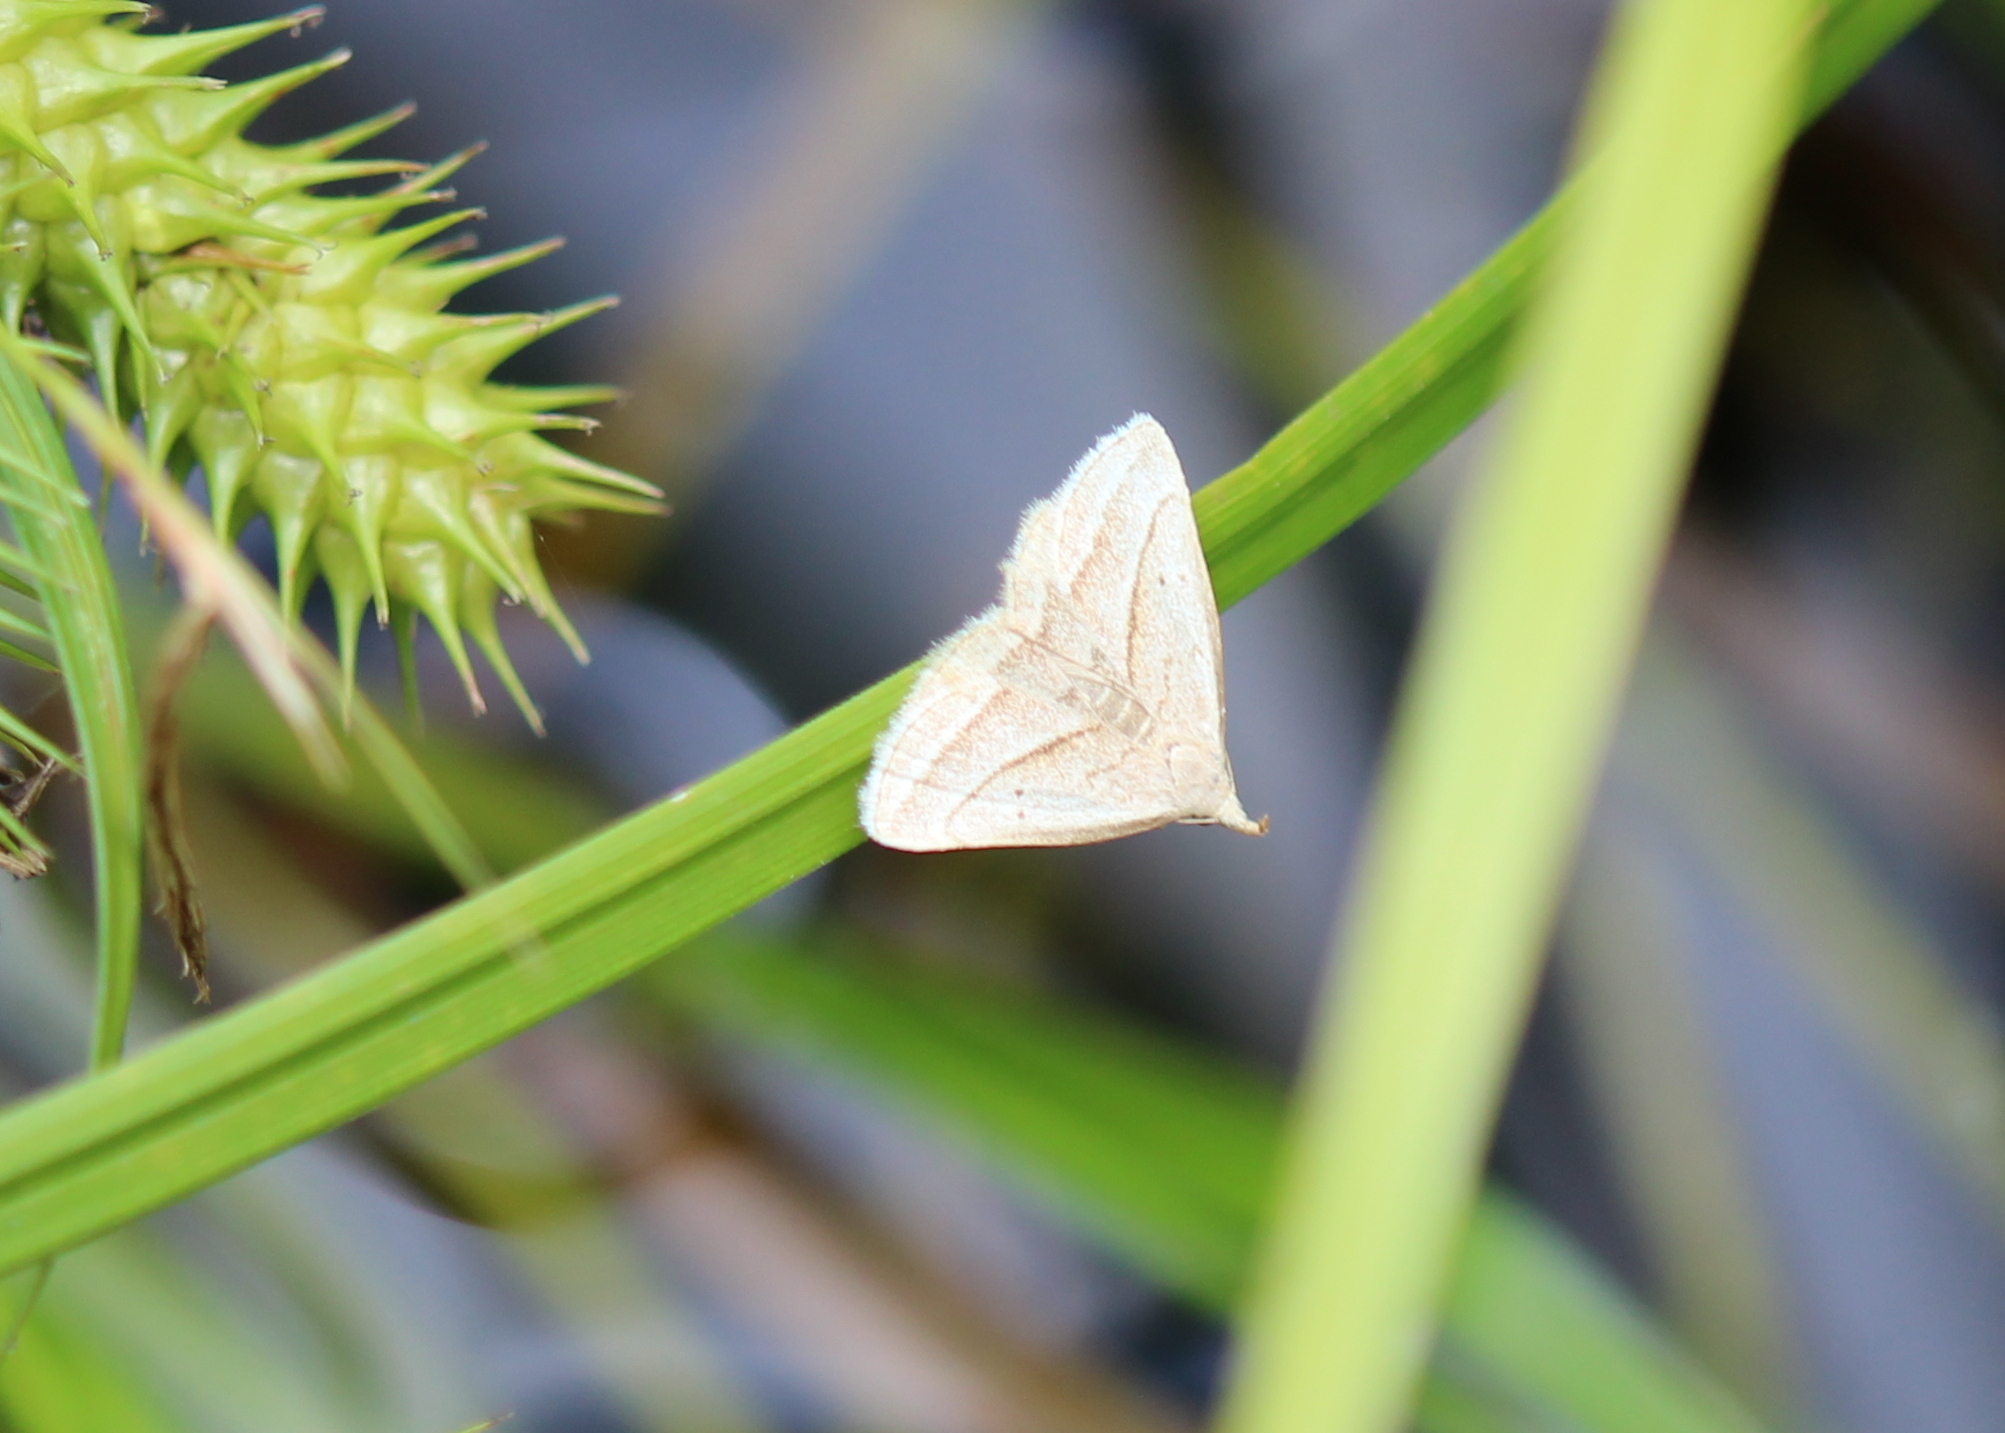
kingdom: Animalia
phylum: Arthropoda
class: Insecta
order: Lepidoptera
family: Erebidae
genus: Macrochilo
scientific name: Macrochilo absorptalis
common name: Slant-lined owlet
